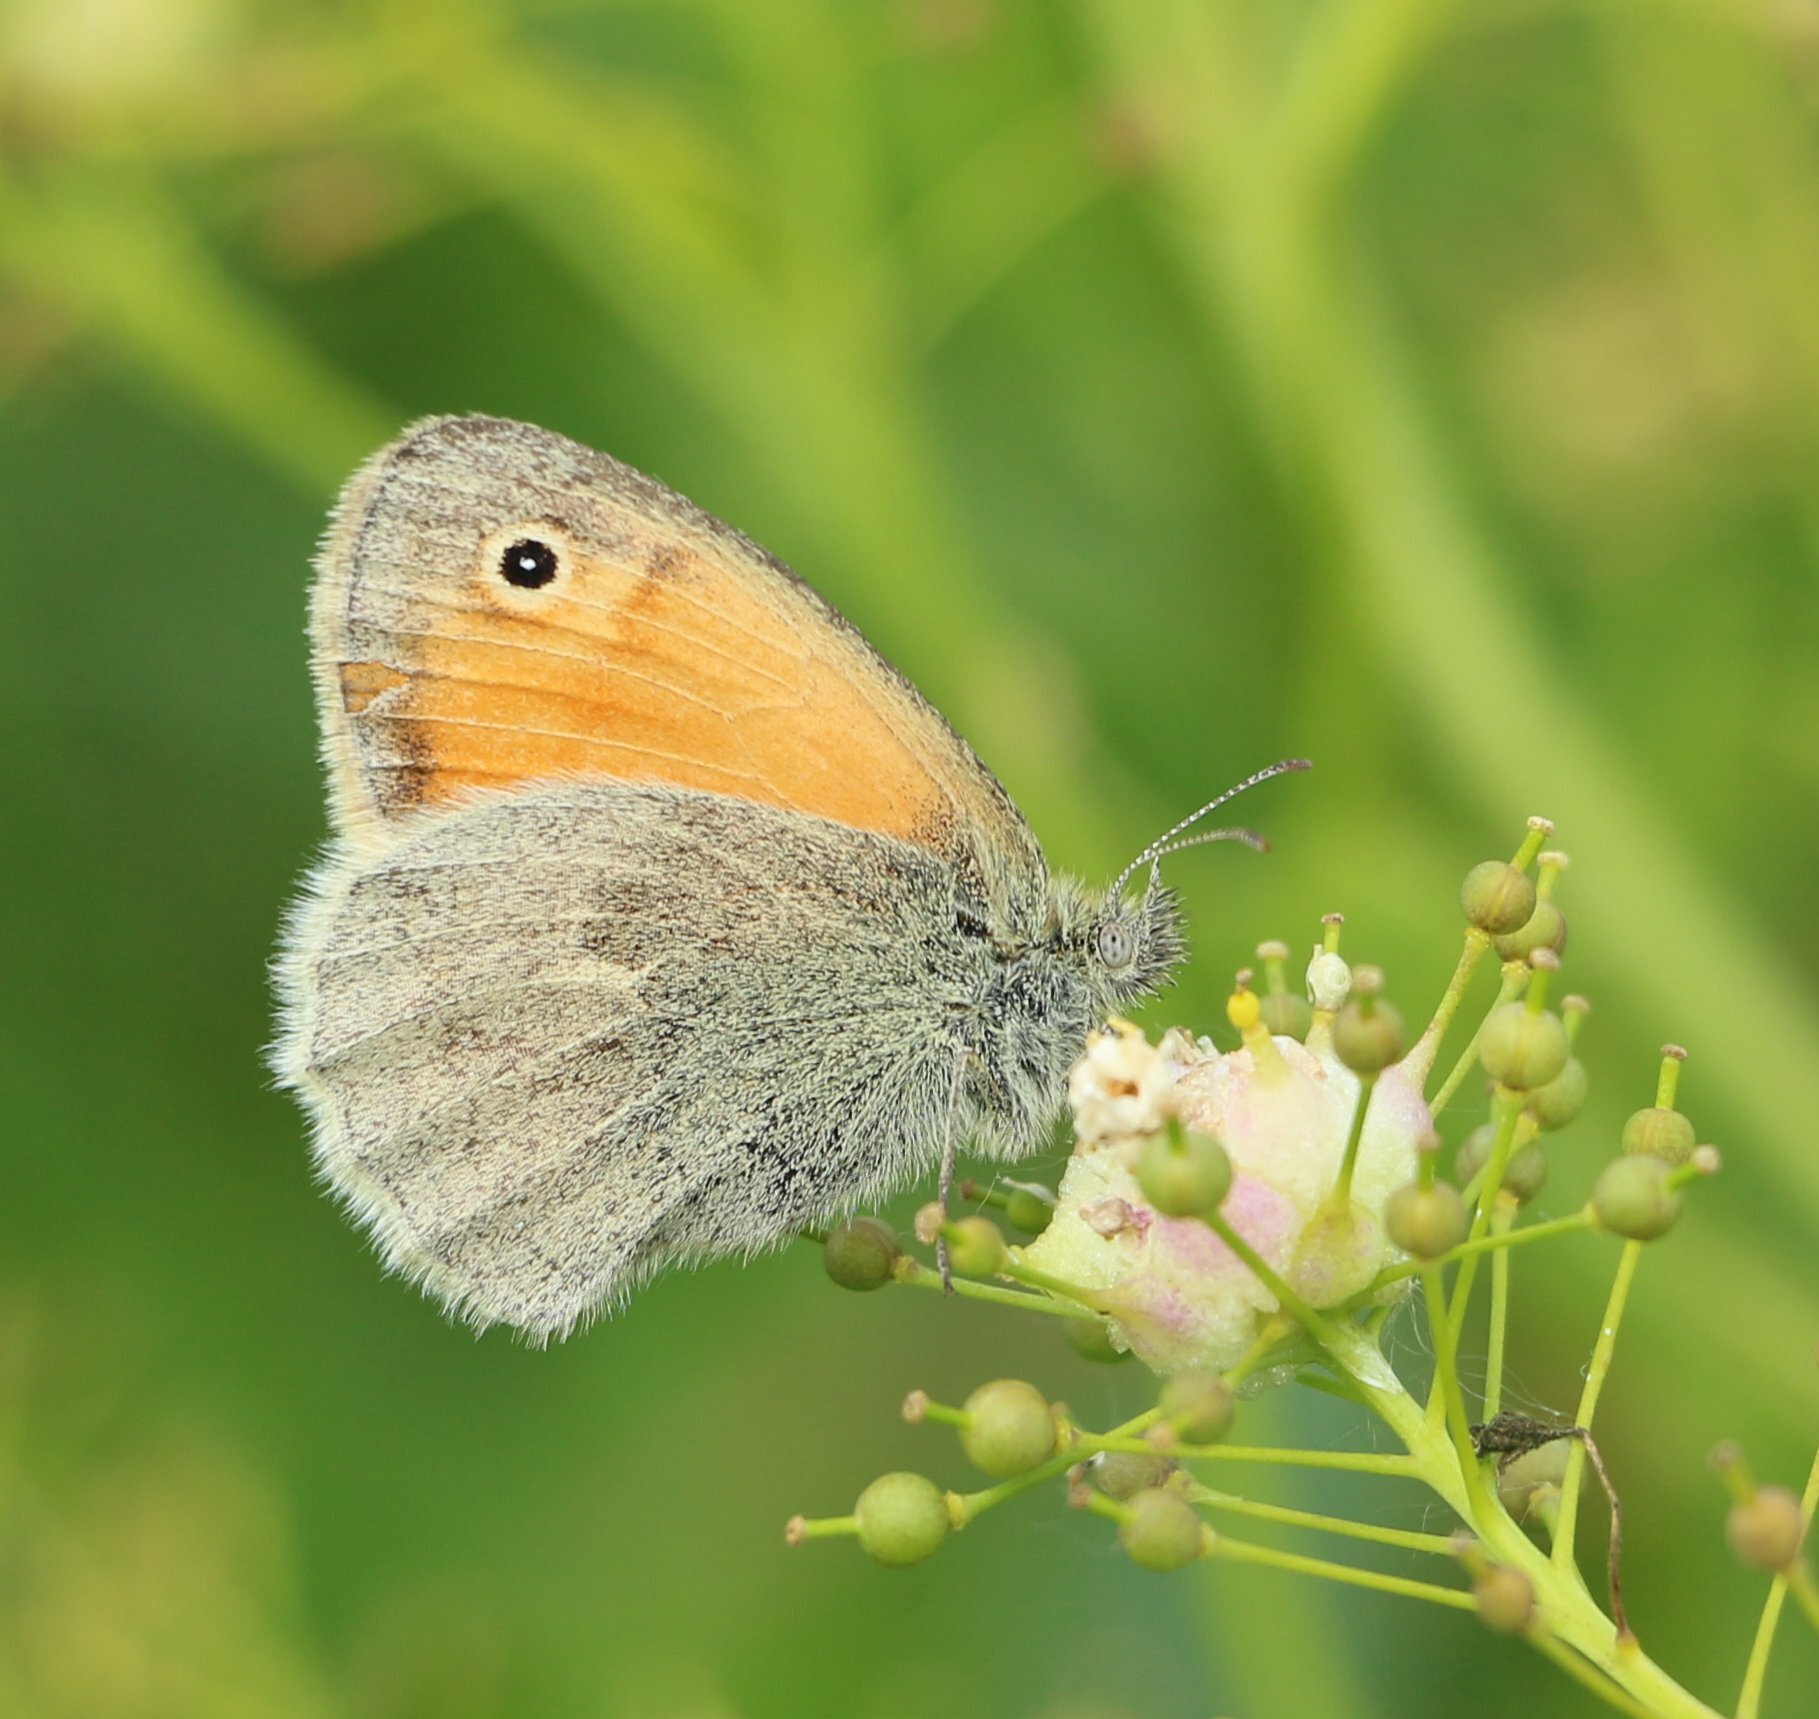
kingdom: Animalia
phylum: Arthropoda
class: Insecta
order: Lepidoptera
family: Nymphalidae
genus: Coenonympha
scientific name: Coenonympha pamphilus
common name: Small heath
